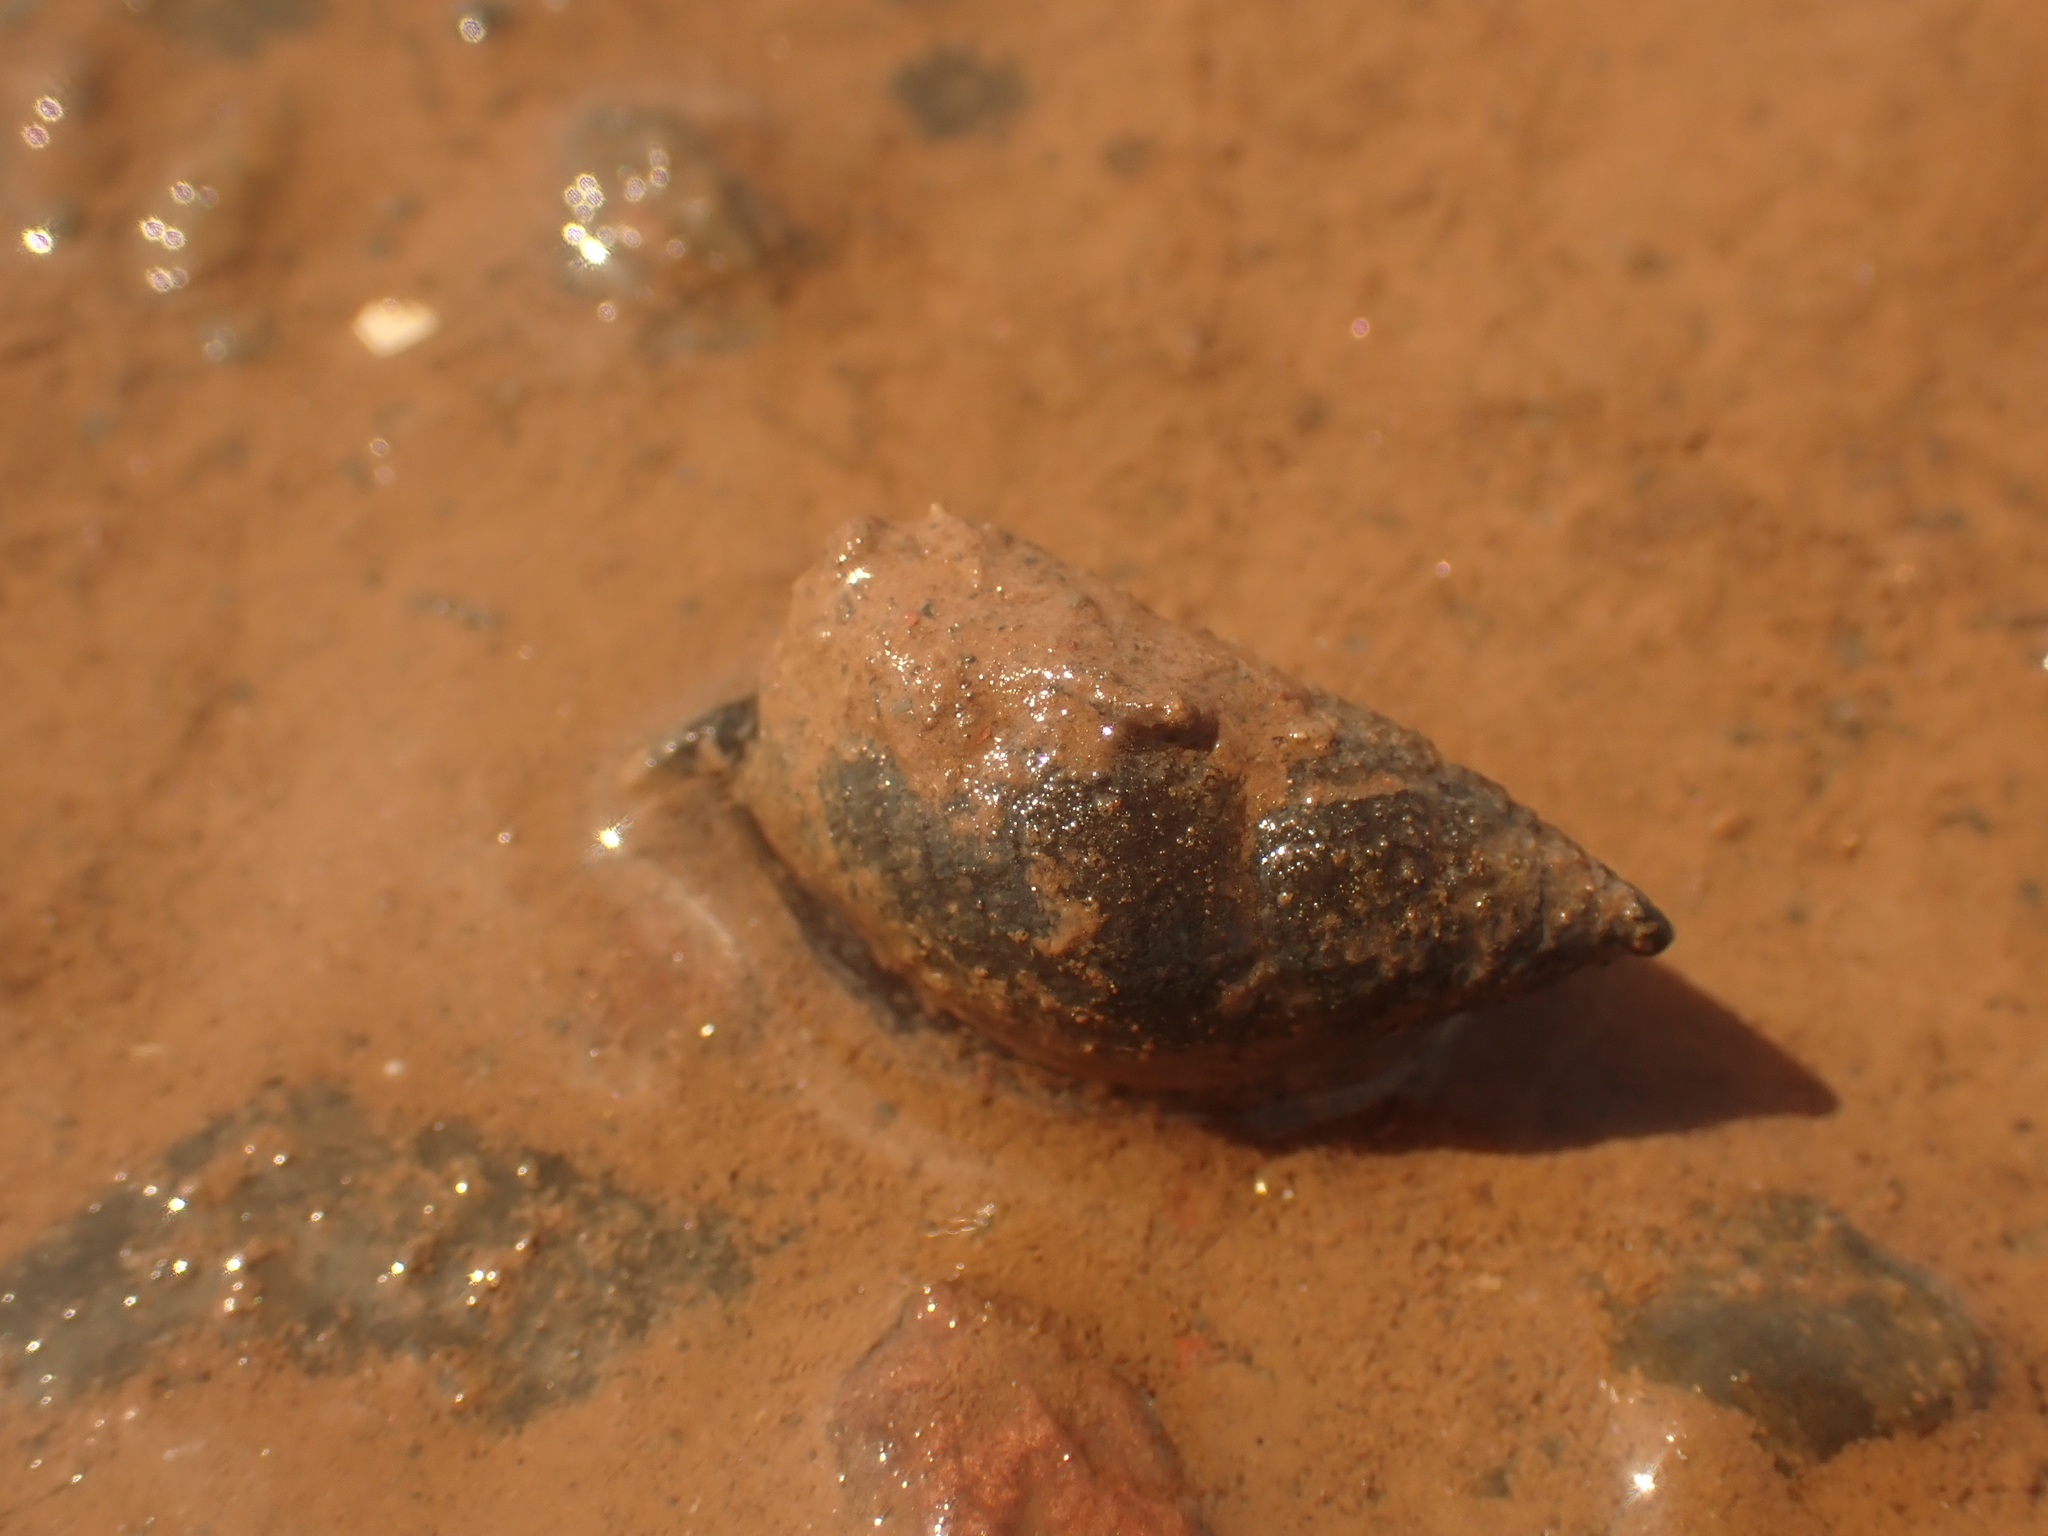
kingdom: Animalia
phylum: Mollusca
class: Gastropoda
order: Neogastropoda
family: Nassariidae
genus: Ilyanassa
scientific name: Ilyanassa obsoleta
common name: Eastern mudsnail
